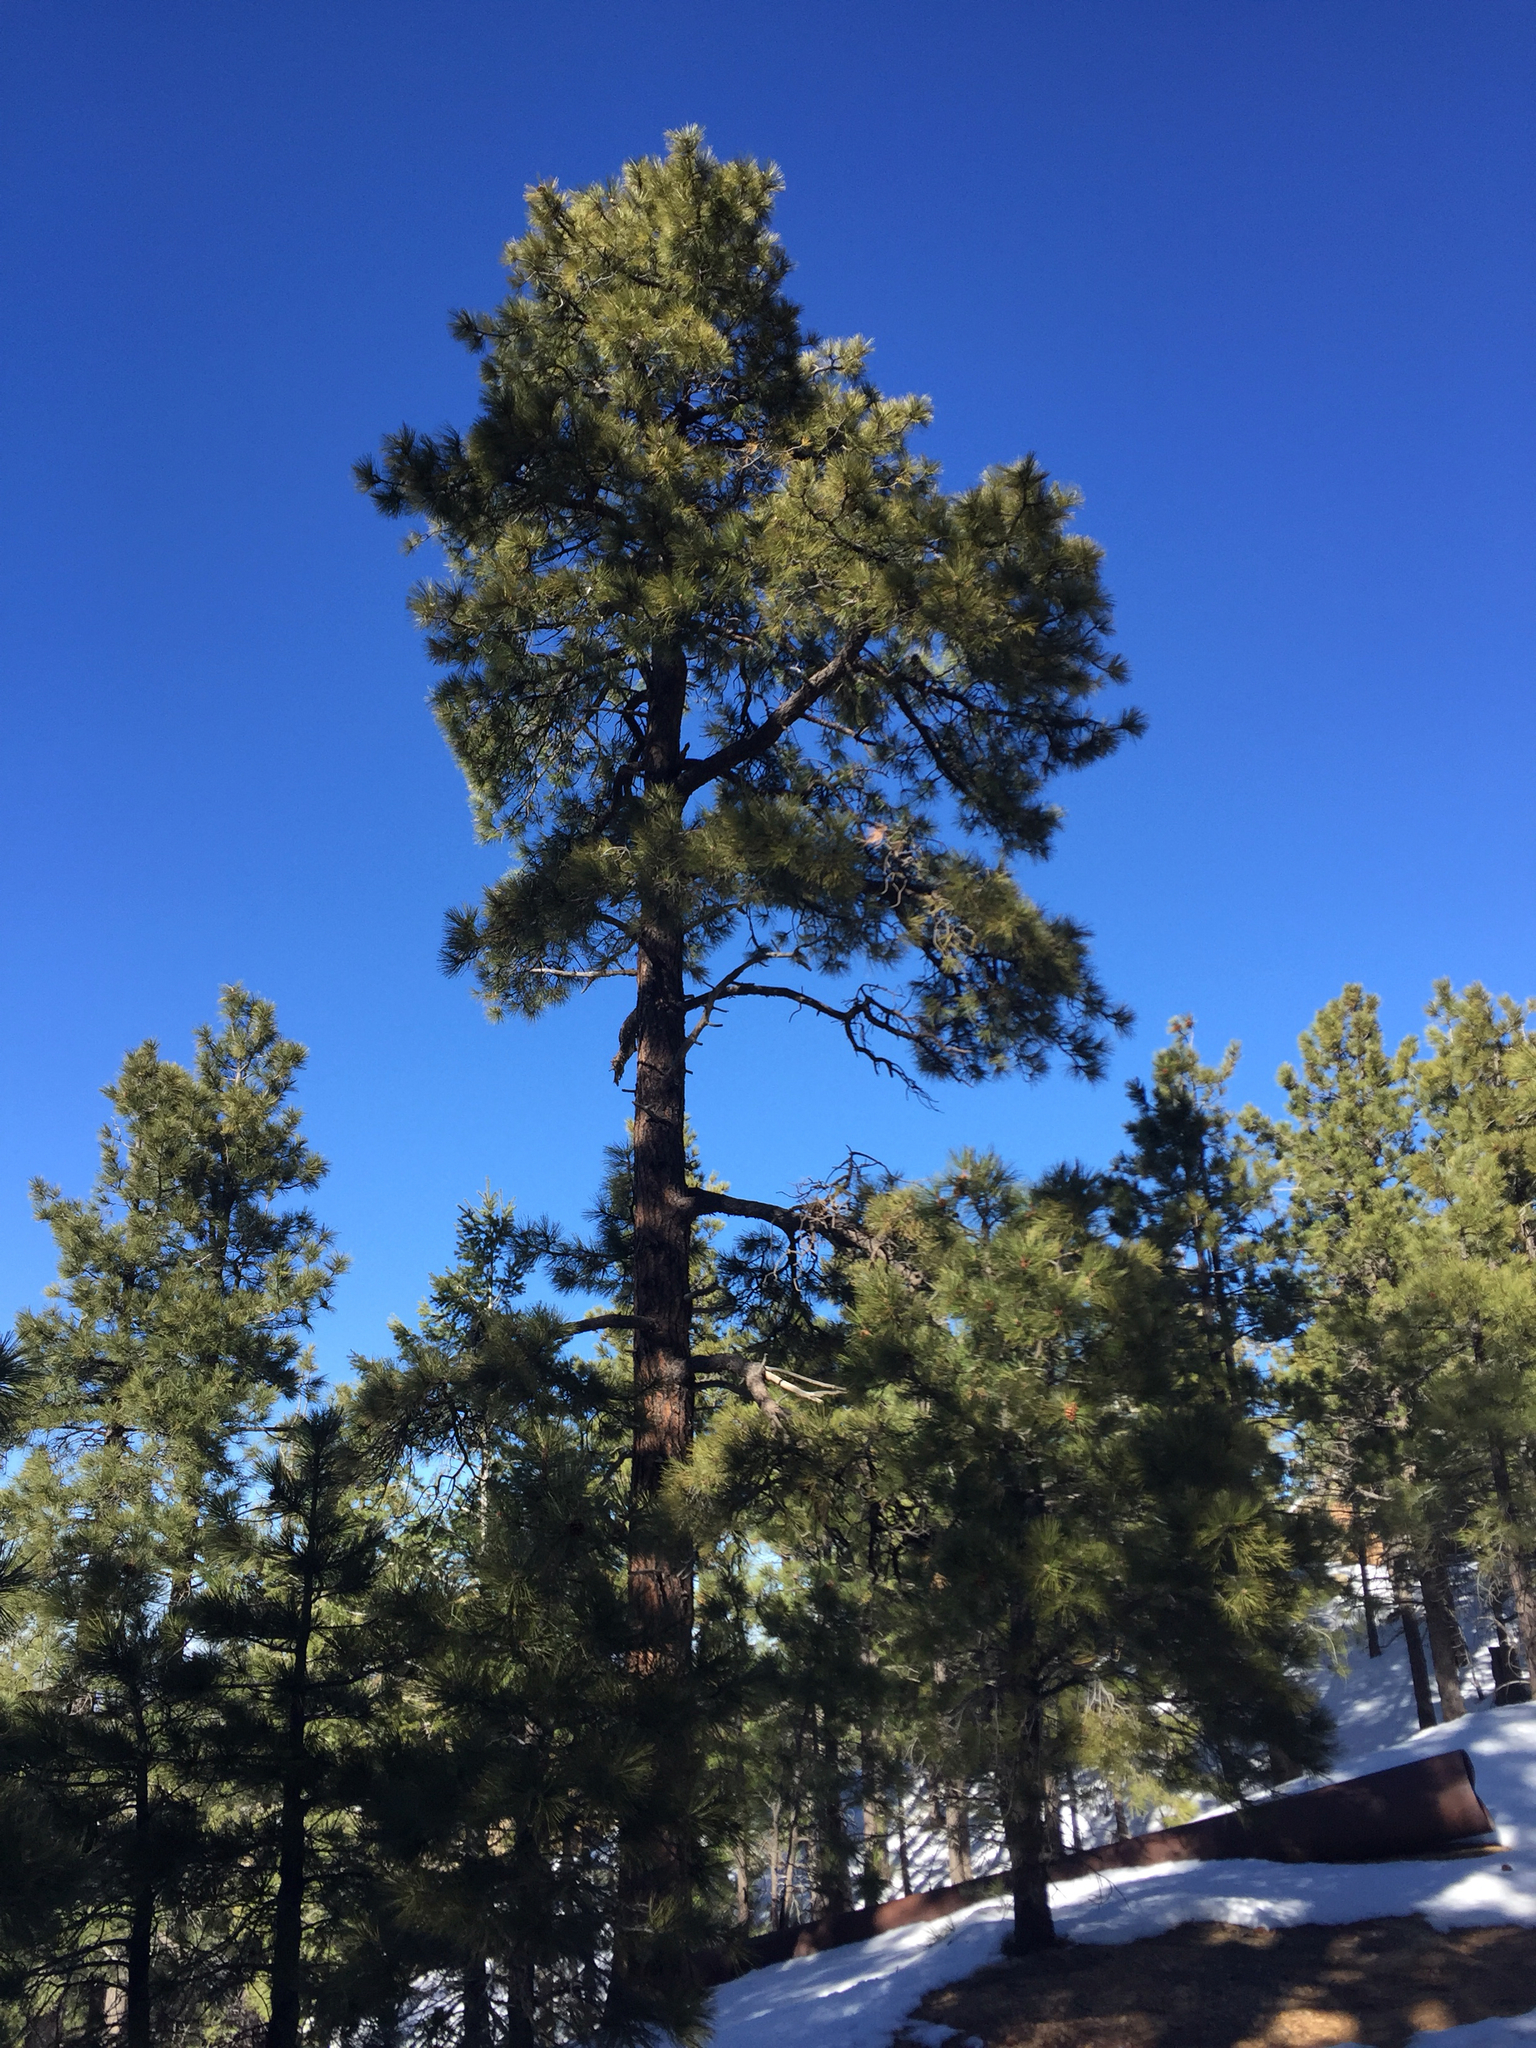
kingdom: Plantae
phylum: Tracheophyta
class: Pinopsida
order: Pinales
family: Pinaceae
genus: Pinus
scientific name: Pinus ponderosa
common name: Western yellow-pine
